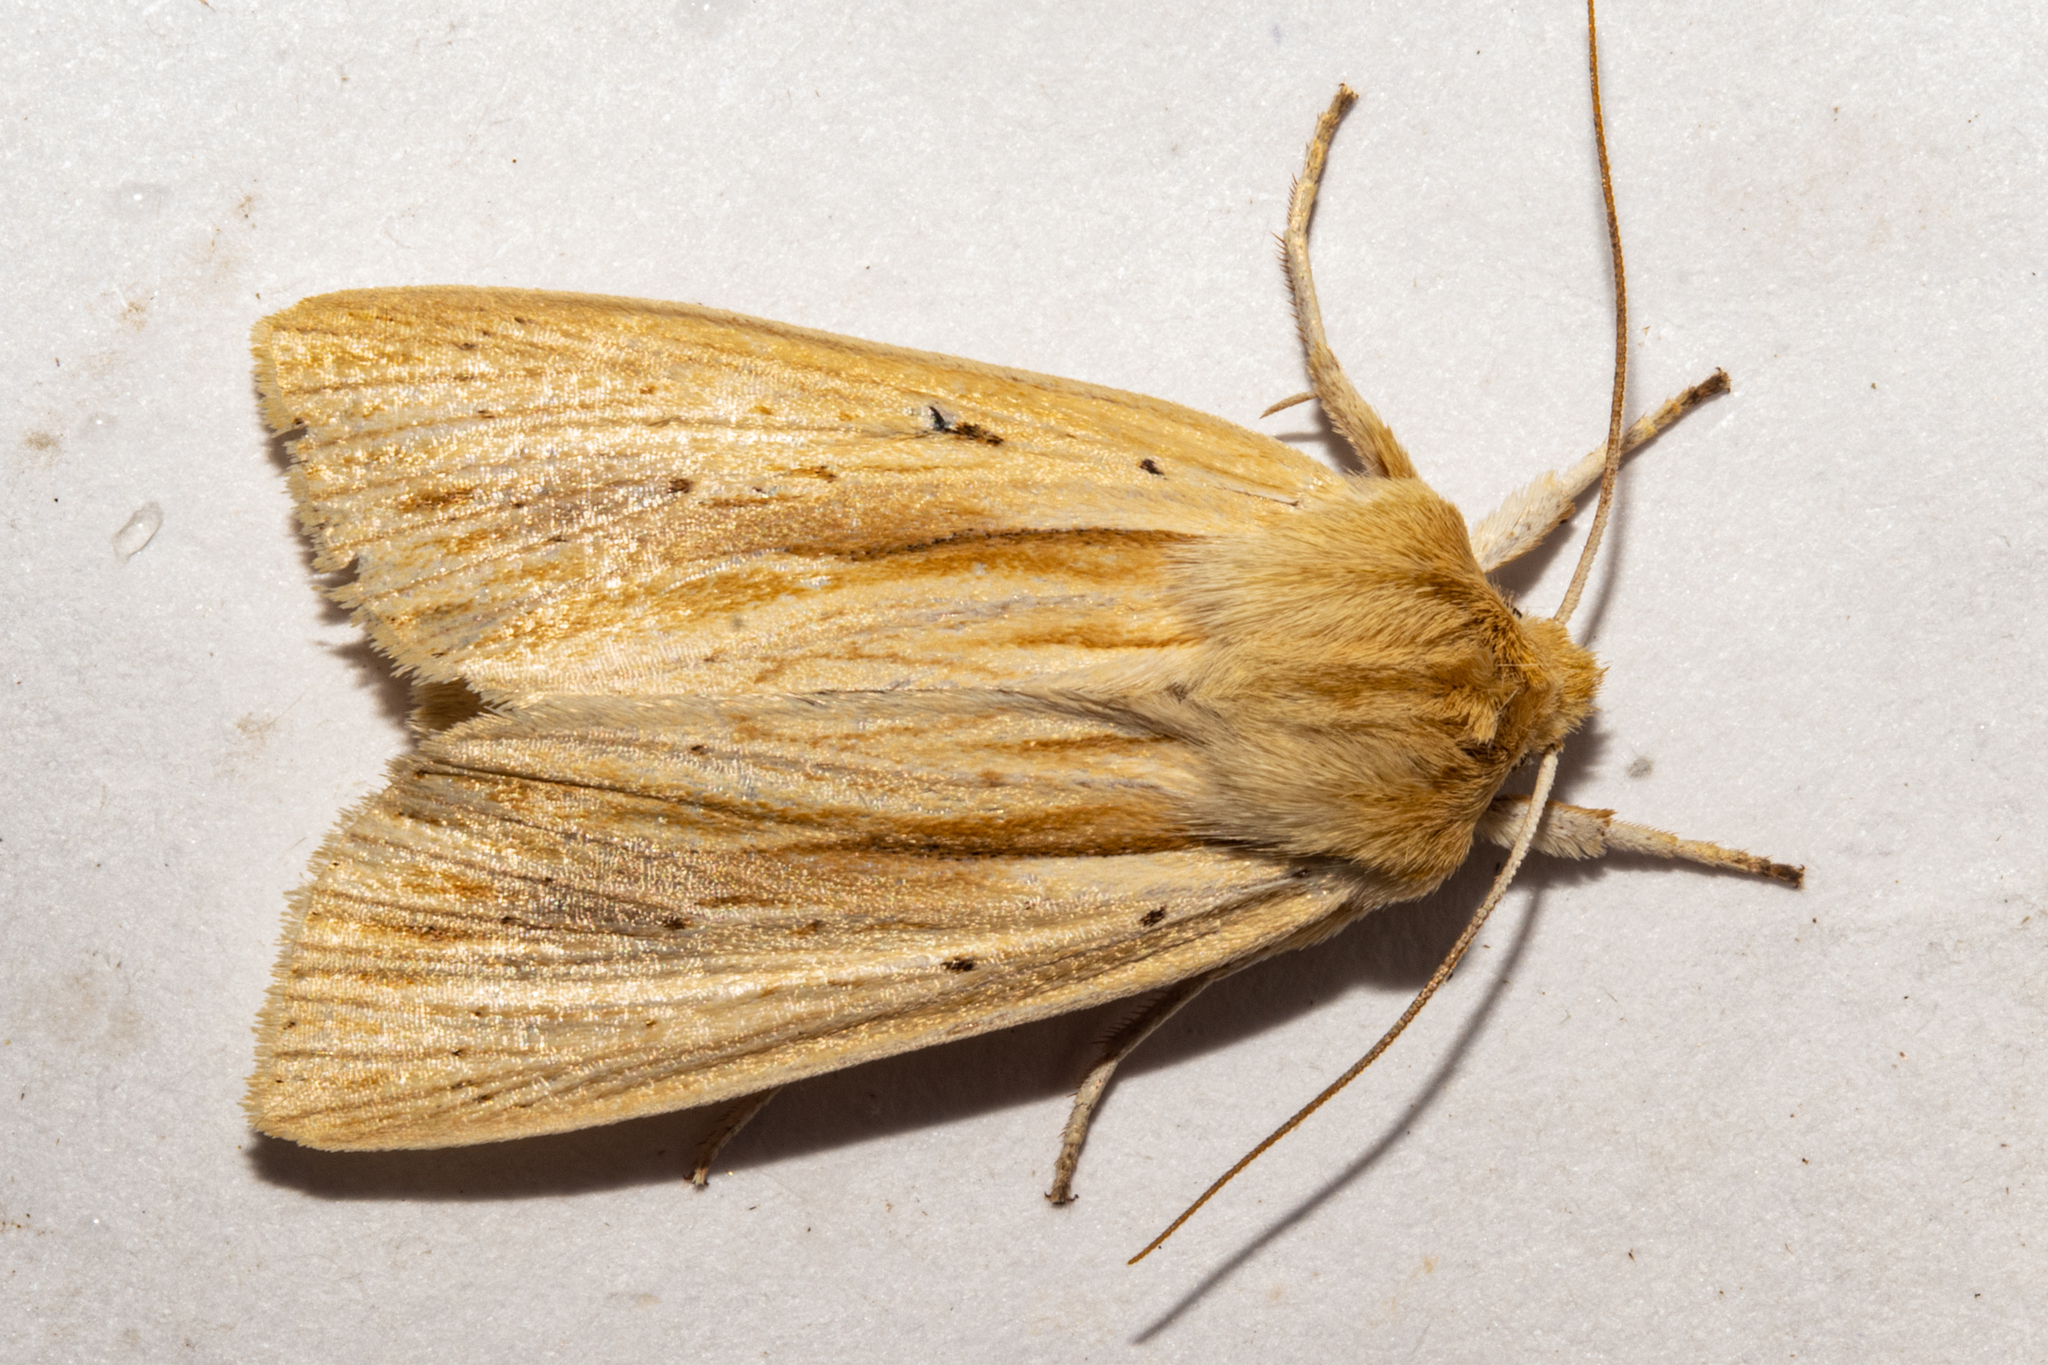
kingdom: Animalia
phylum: Arthropoda
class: Insecta
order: Lepidoptera
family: Noctuidae
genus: Ichneutica
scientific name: Ichneutica semivittata
